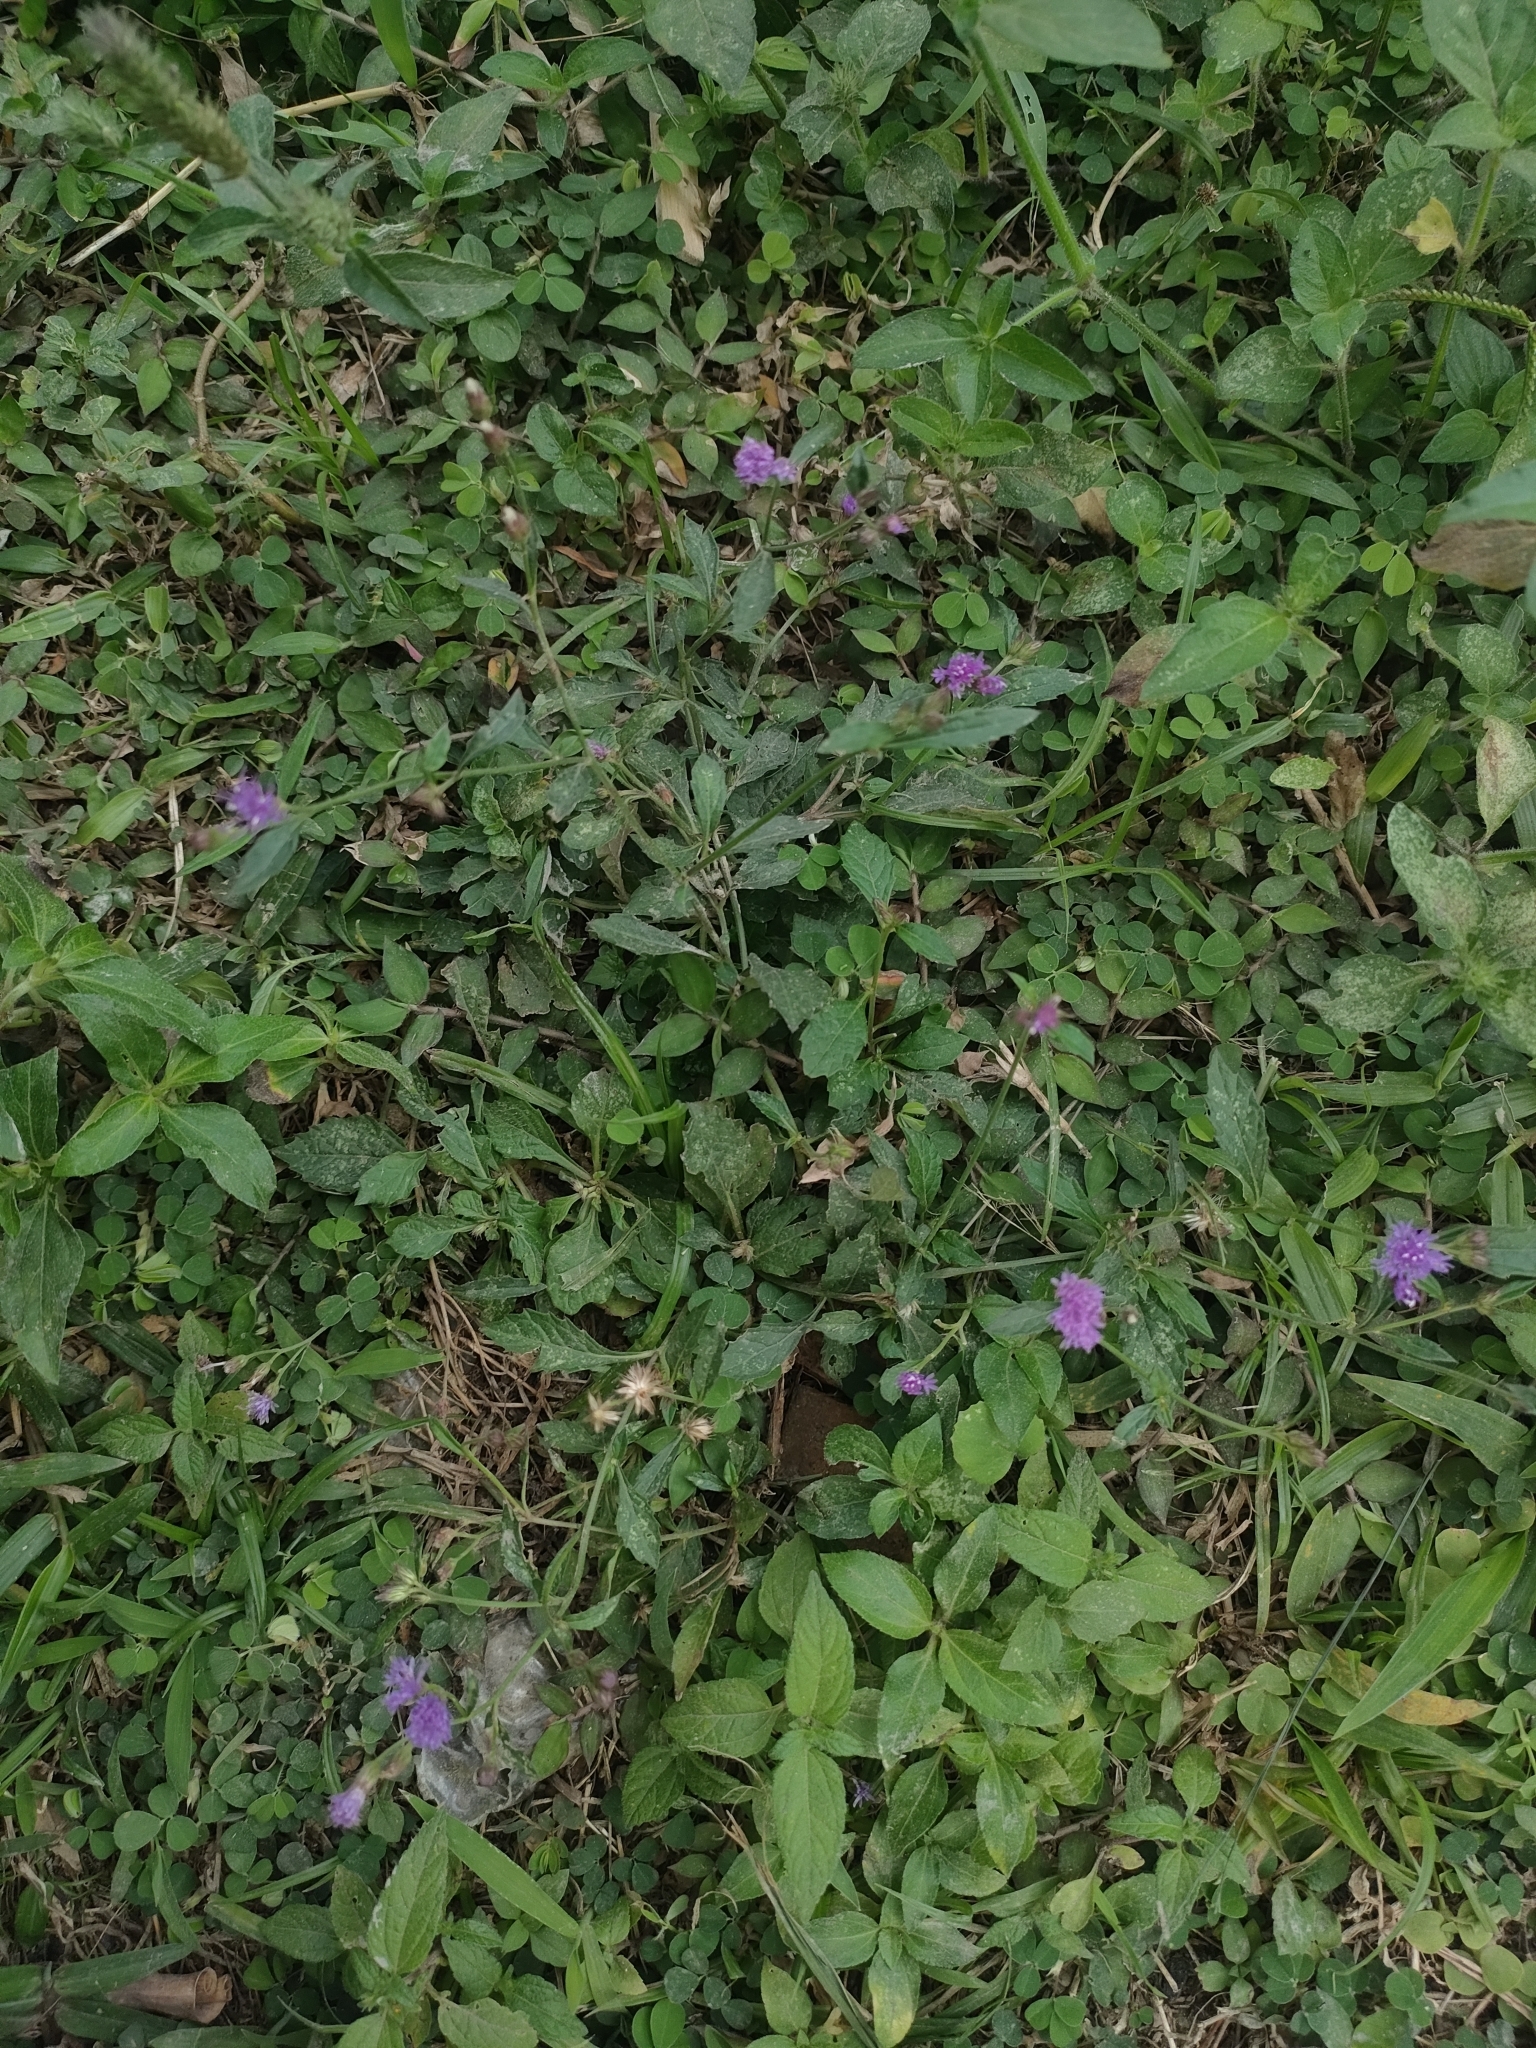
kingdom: Plantae
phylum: Tracheophyta
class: Magnoliopsida
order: Asterales
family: Asteraceae
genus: Cyanthillium
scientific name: Cyanthillium cinereum
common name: Little ironweed
